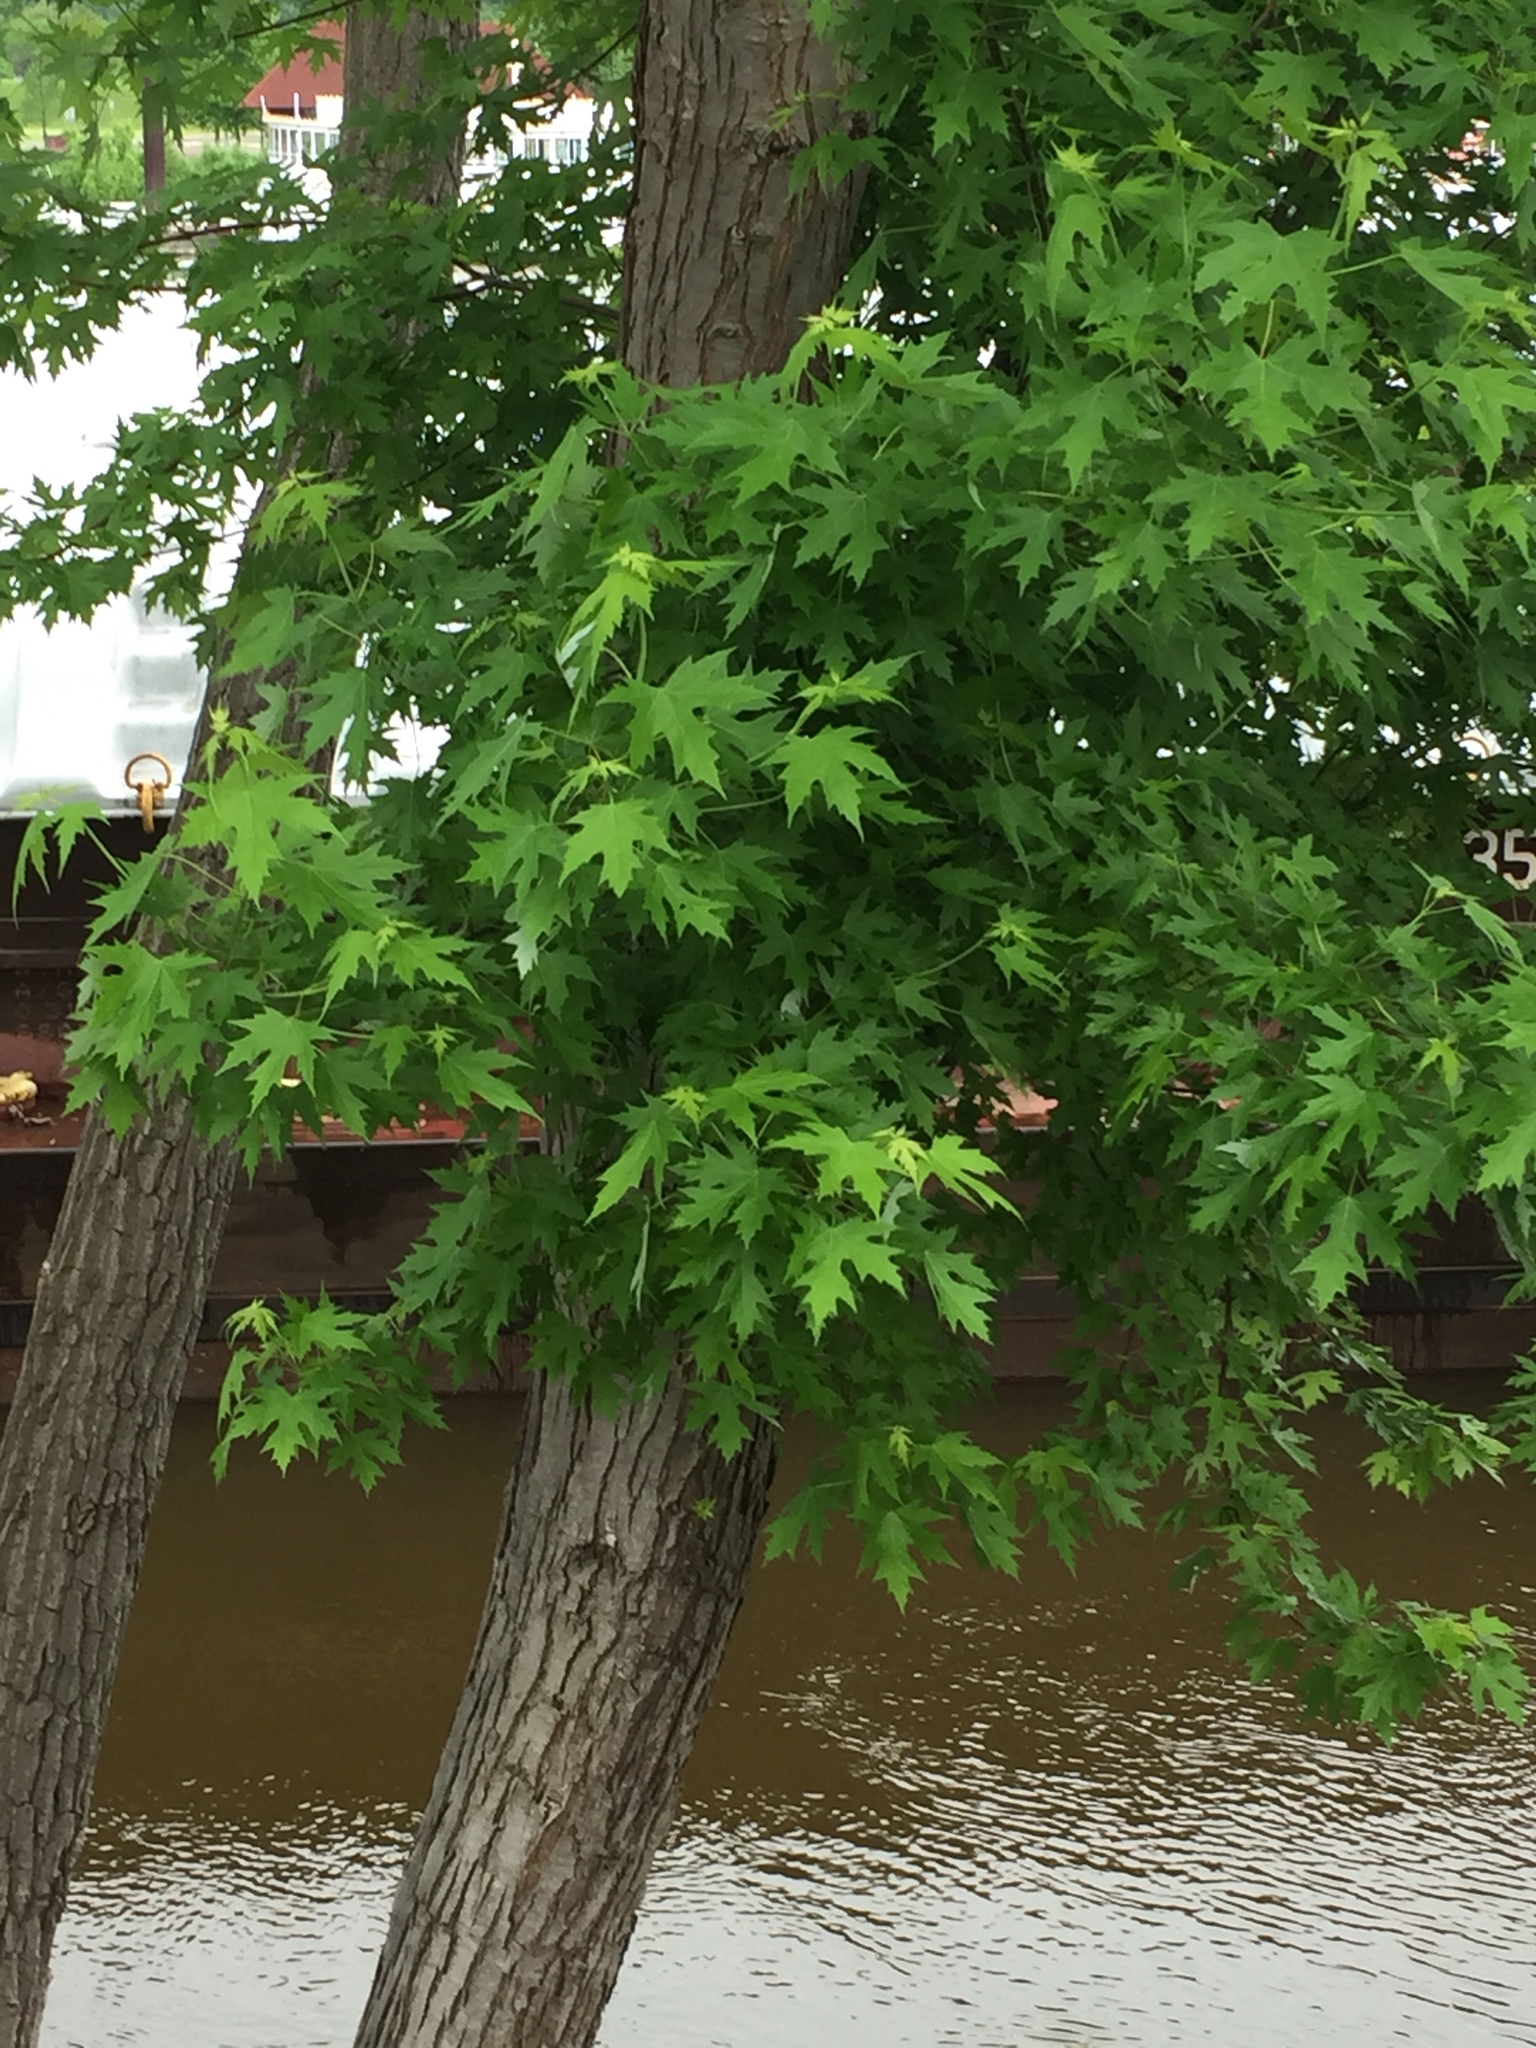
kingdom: Plantae
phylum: Tracheophyta
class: Magnoliopsida
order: Sapindales
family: Sapindaceae
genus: Acer
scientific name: Acer saccharinum
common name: Silver maple
